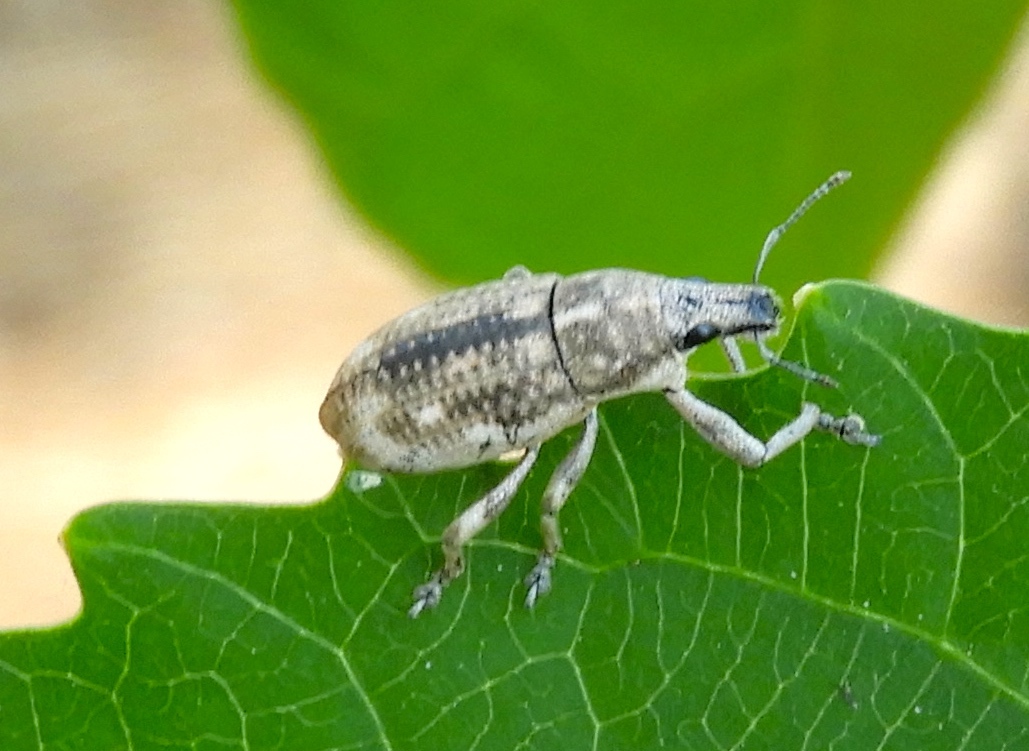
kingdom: Animalia
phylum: Arthropoda
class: Insecta
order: Coleoptera
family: Curculionidae
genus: Epicaerus
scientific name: Epicaerus
